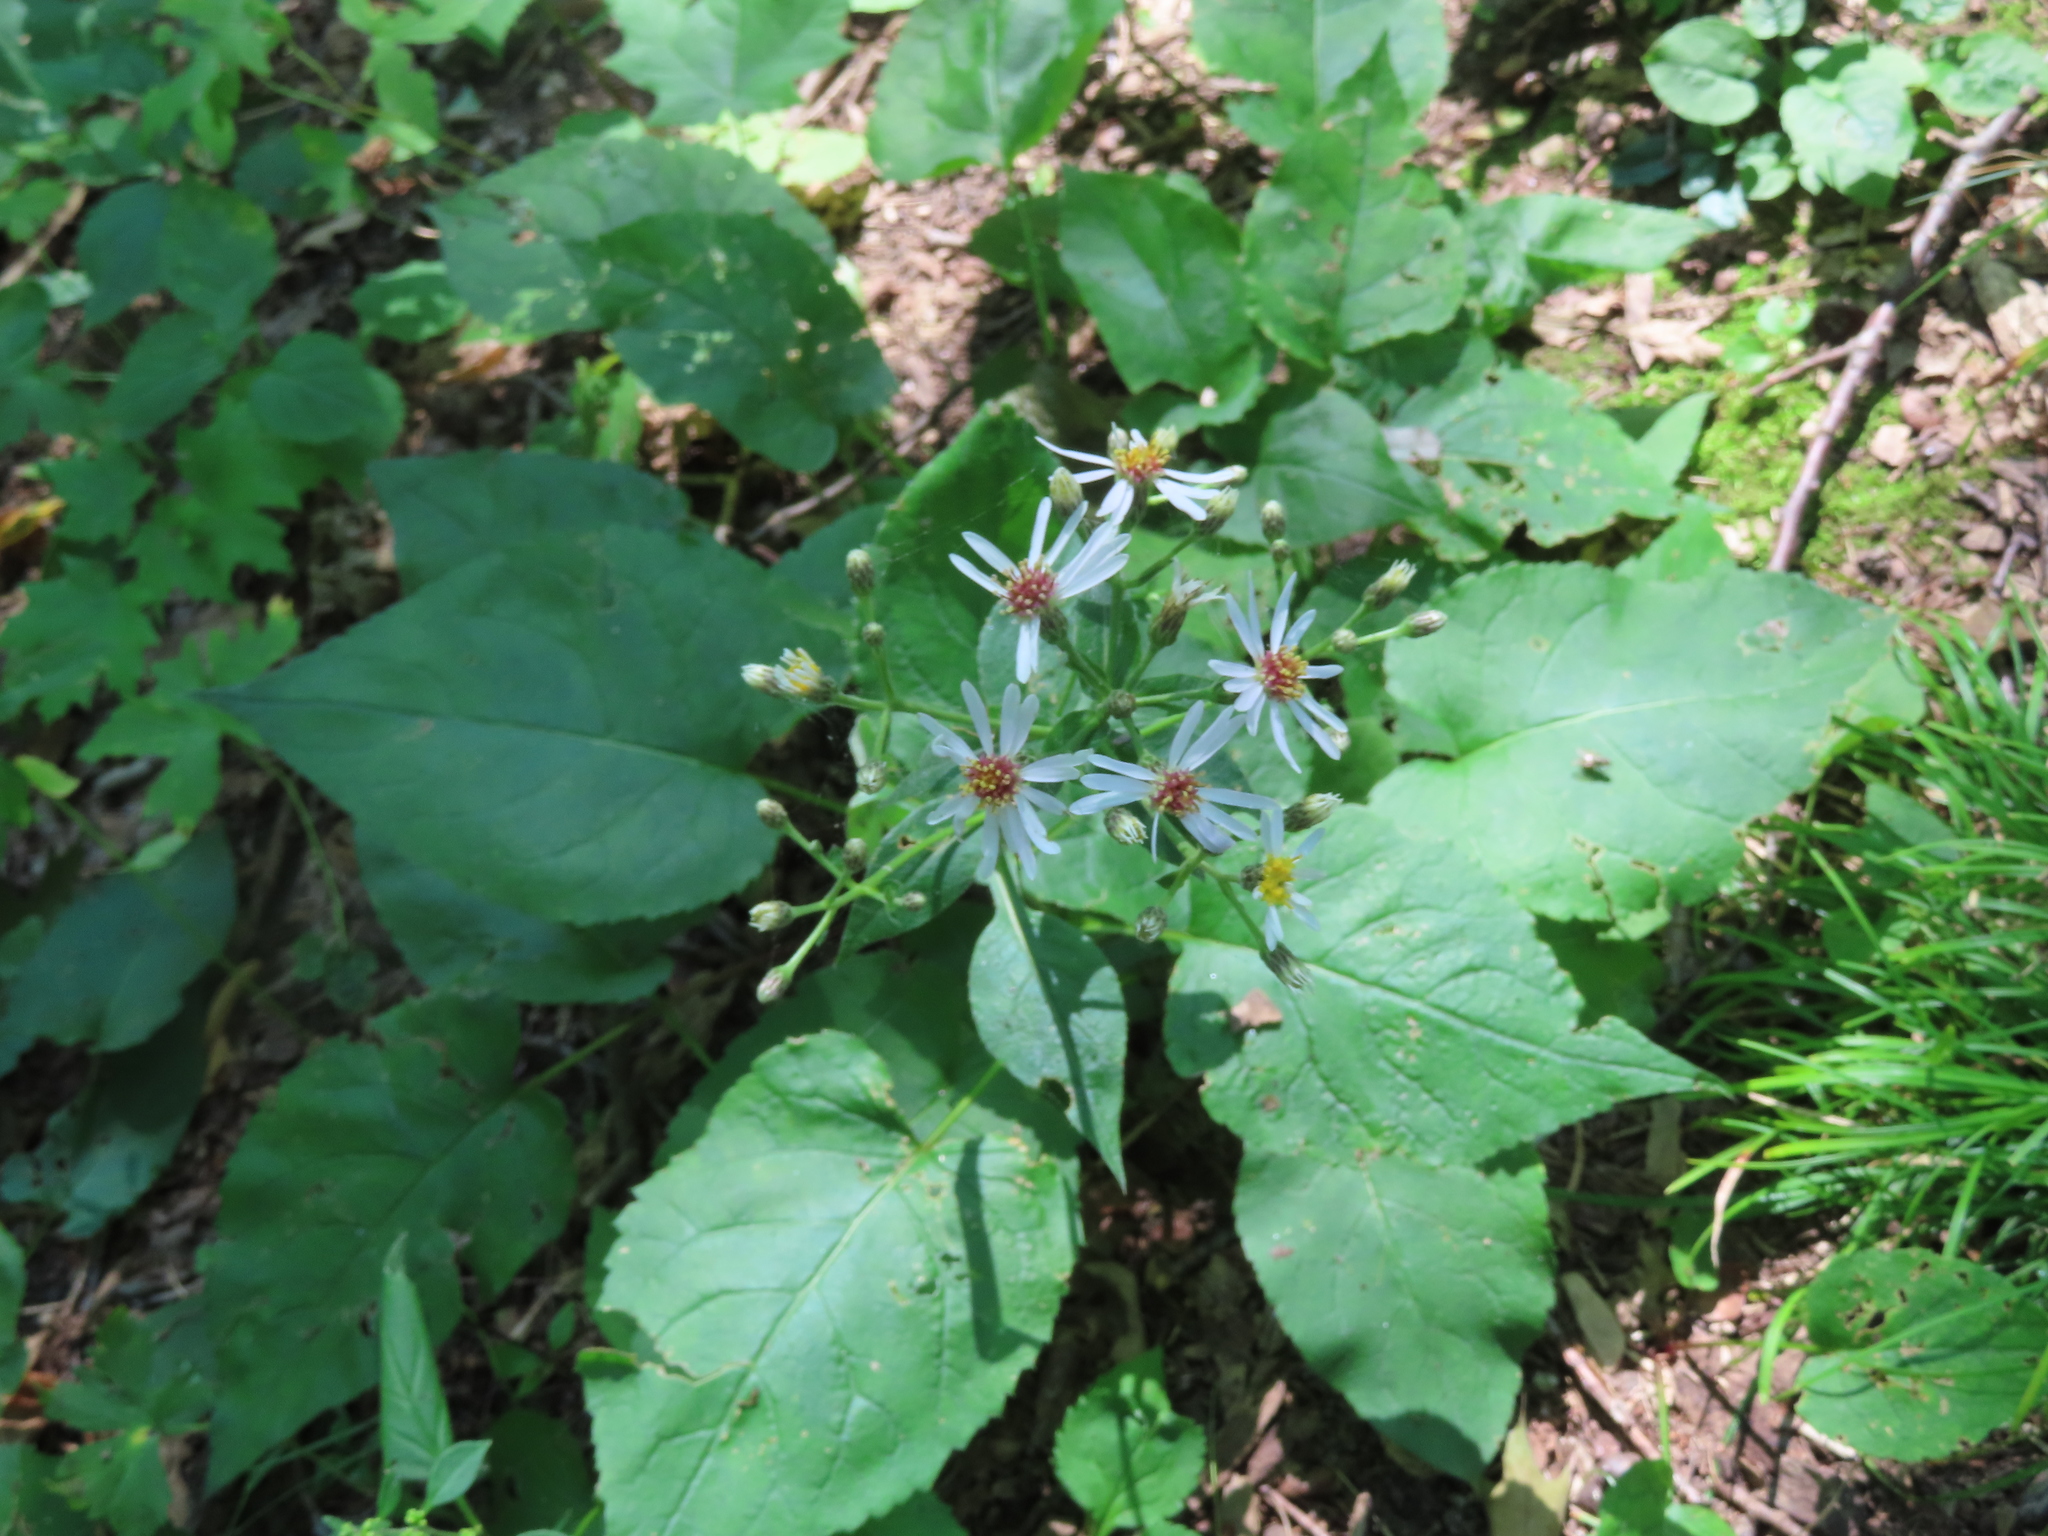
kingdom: Plantae
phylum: Tracheophyta
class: Magnoliopsida
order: Asterales
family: Asteraceae
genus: Eurybia
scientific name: Eurybia macrophylla
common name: Big-leaved aster
